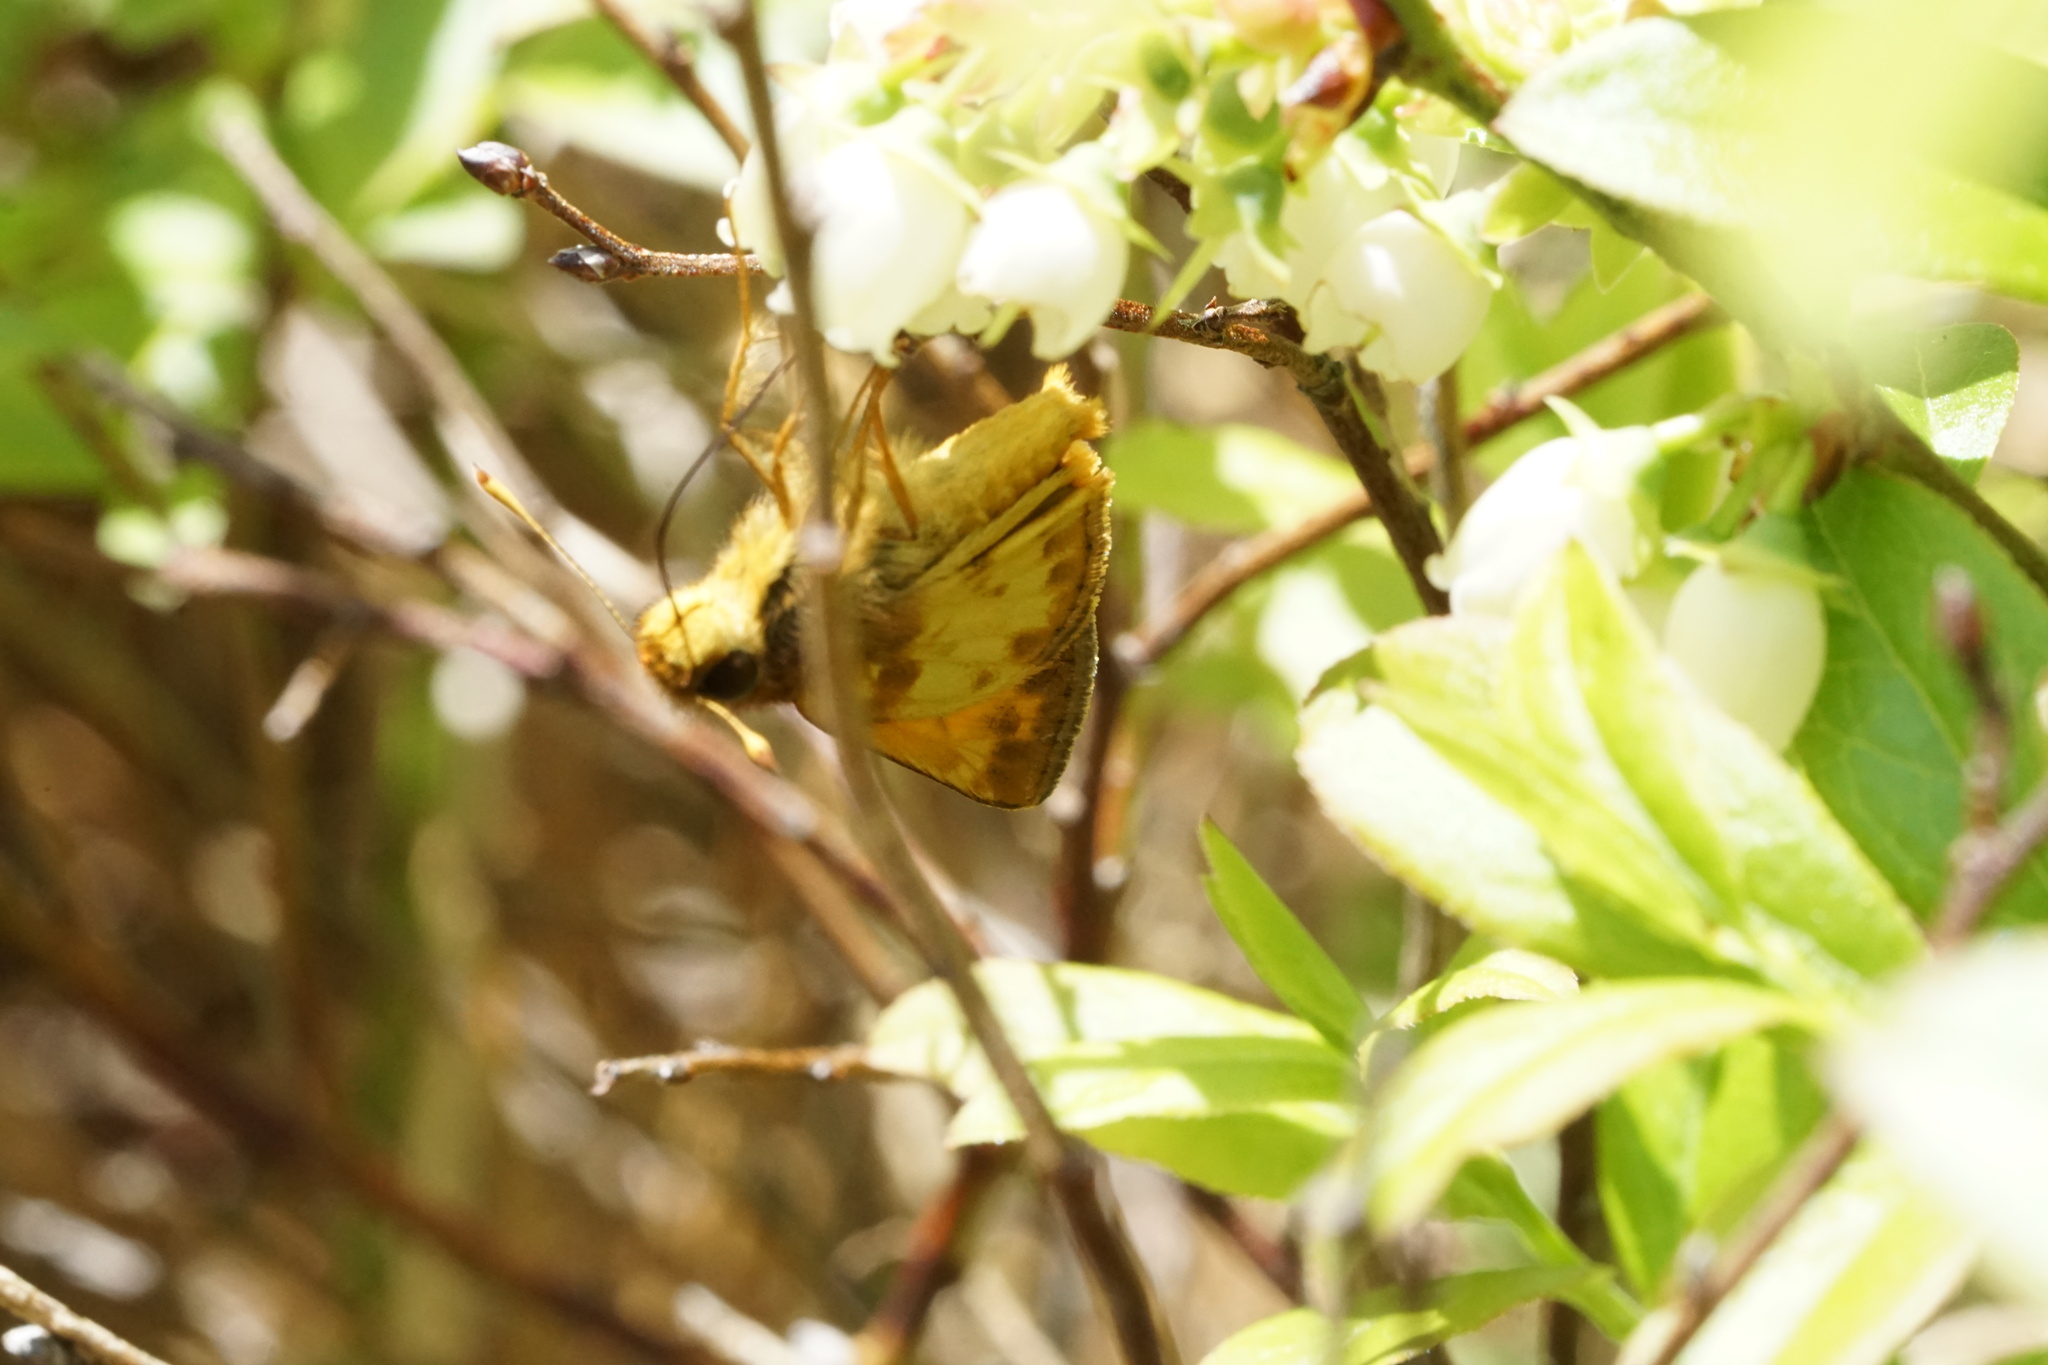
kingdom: Animalia
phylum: Arthropoda
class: Insecta
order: Lepidoptera
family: Hesperiidae
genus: Lon
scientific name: Lon zabulon
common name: Zabulon skipper
